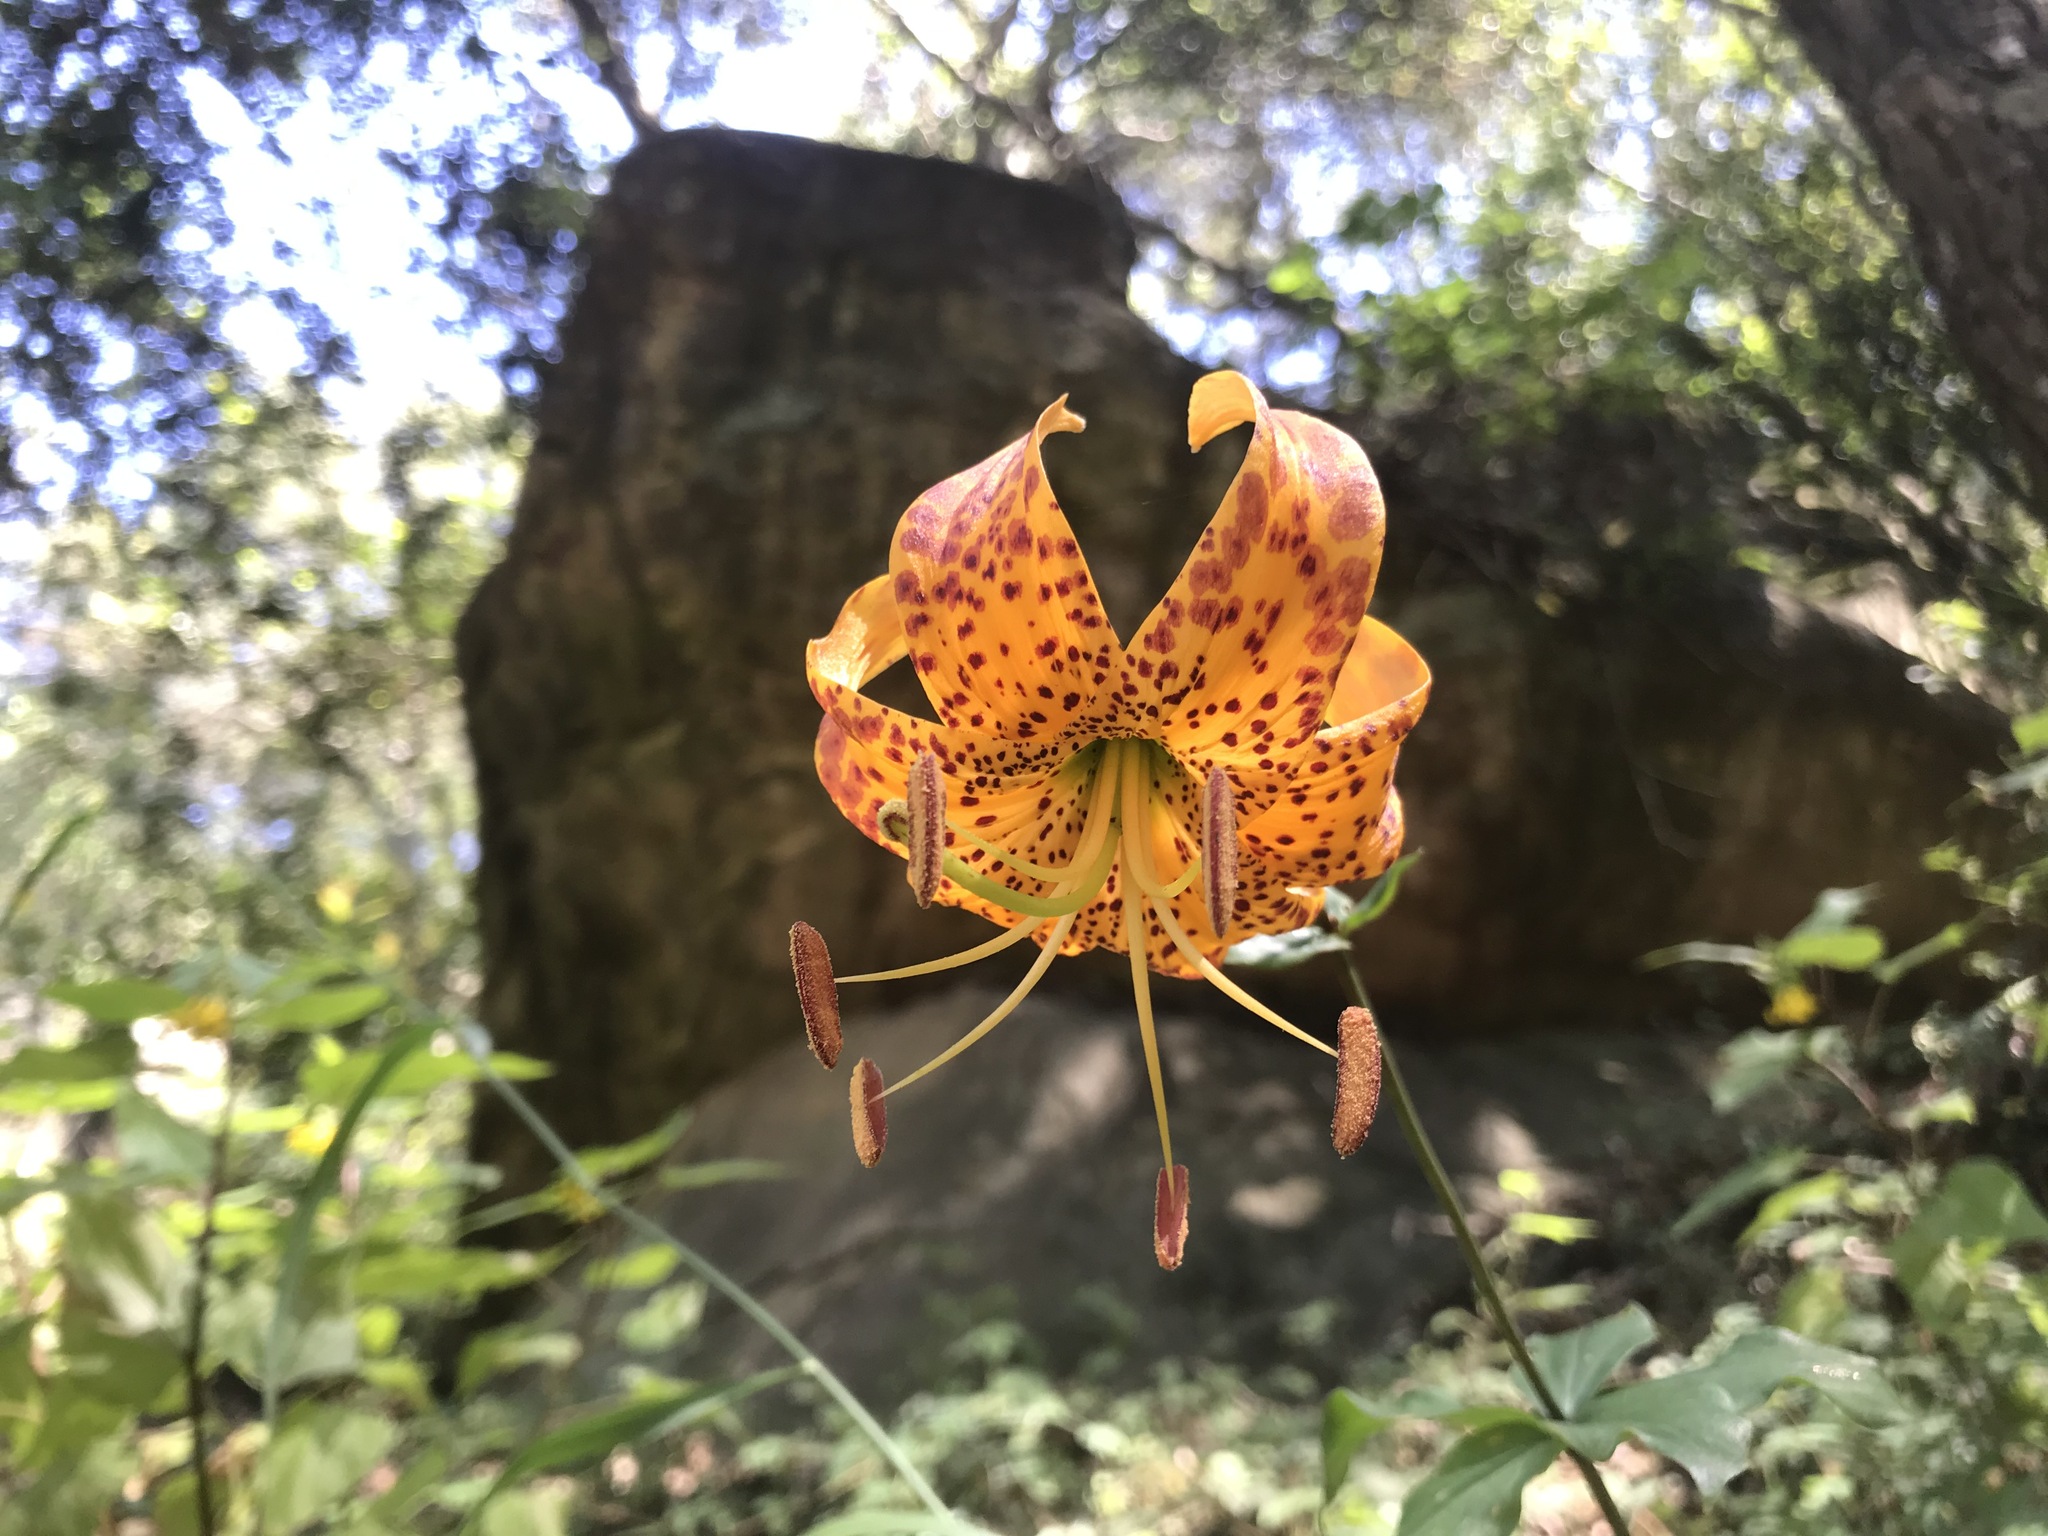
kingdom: Plantae
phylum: Tracheophyta
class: Liliopsida
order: Liliales
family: Liliaceae
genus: Lilium
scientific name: Lilium humboldtii
